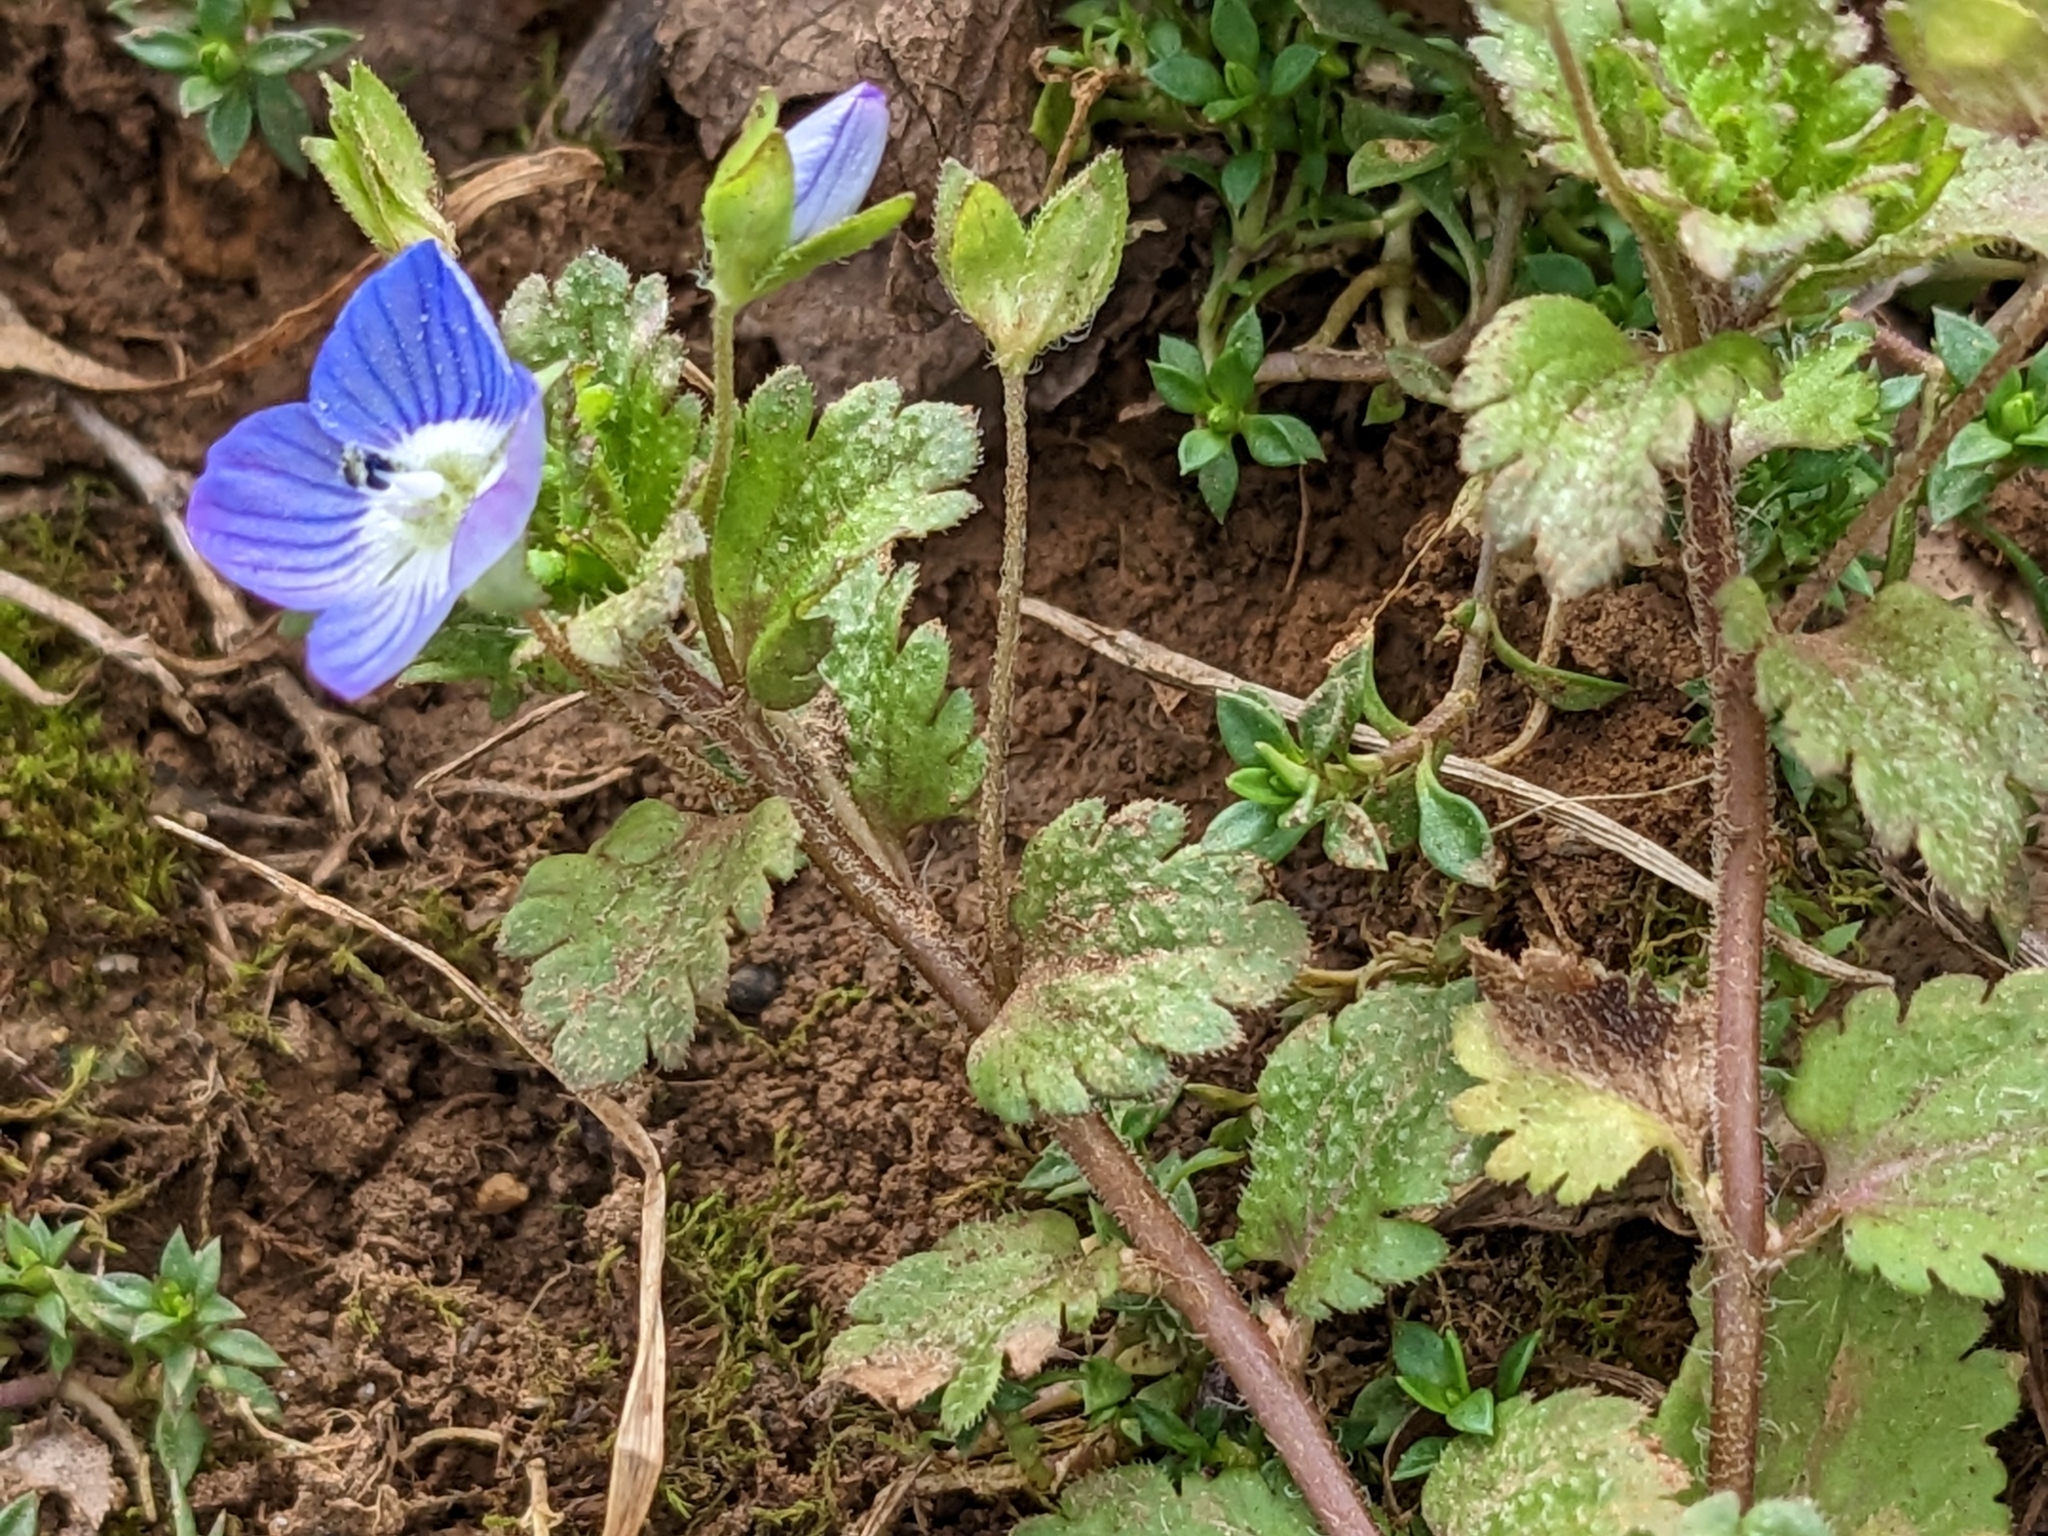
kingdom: Plantae
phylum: Tracheophyta
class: Magnoliopsida
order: Lamiales
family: Plantaginaceae
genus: Veronica
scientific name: Veronica persica
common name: Common field-speedwell
